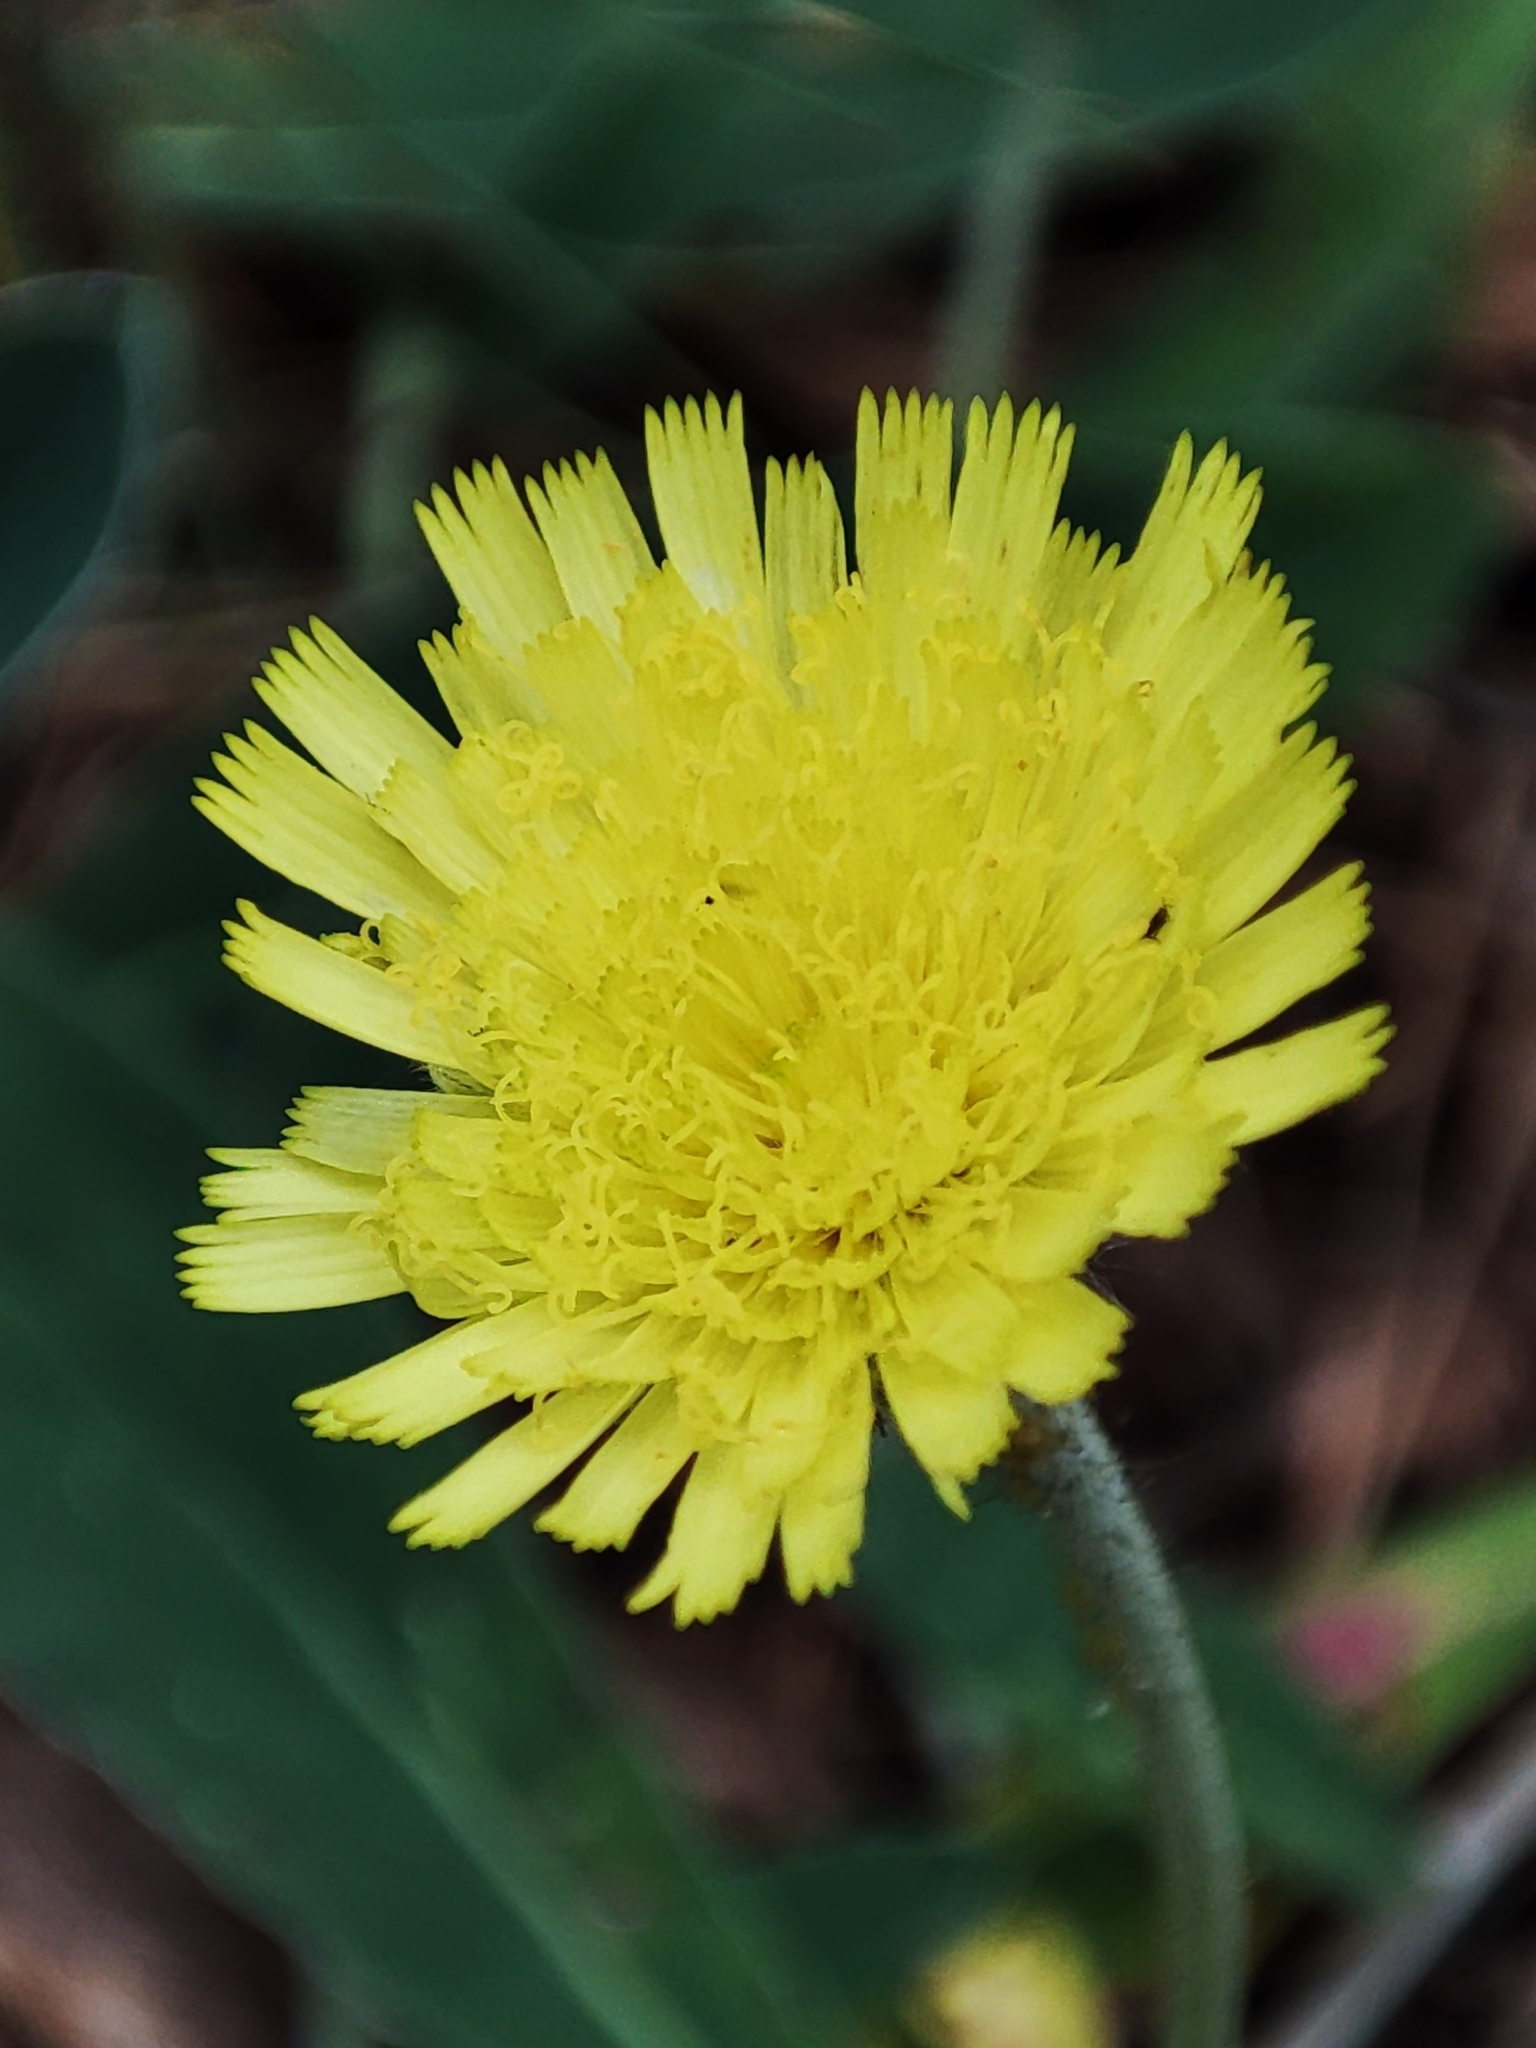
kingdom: Plantae
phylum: Tracheophyta
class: Magnoliopsida
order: Asterales
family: Asteraceae
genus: Pilosella
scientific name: Pilosella officinarum
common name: Mouse-ear hawkweed
